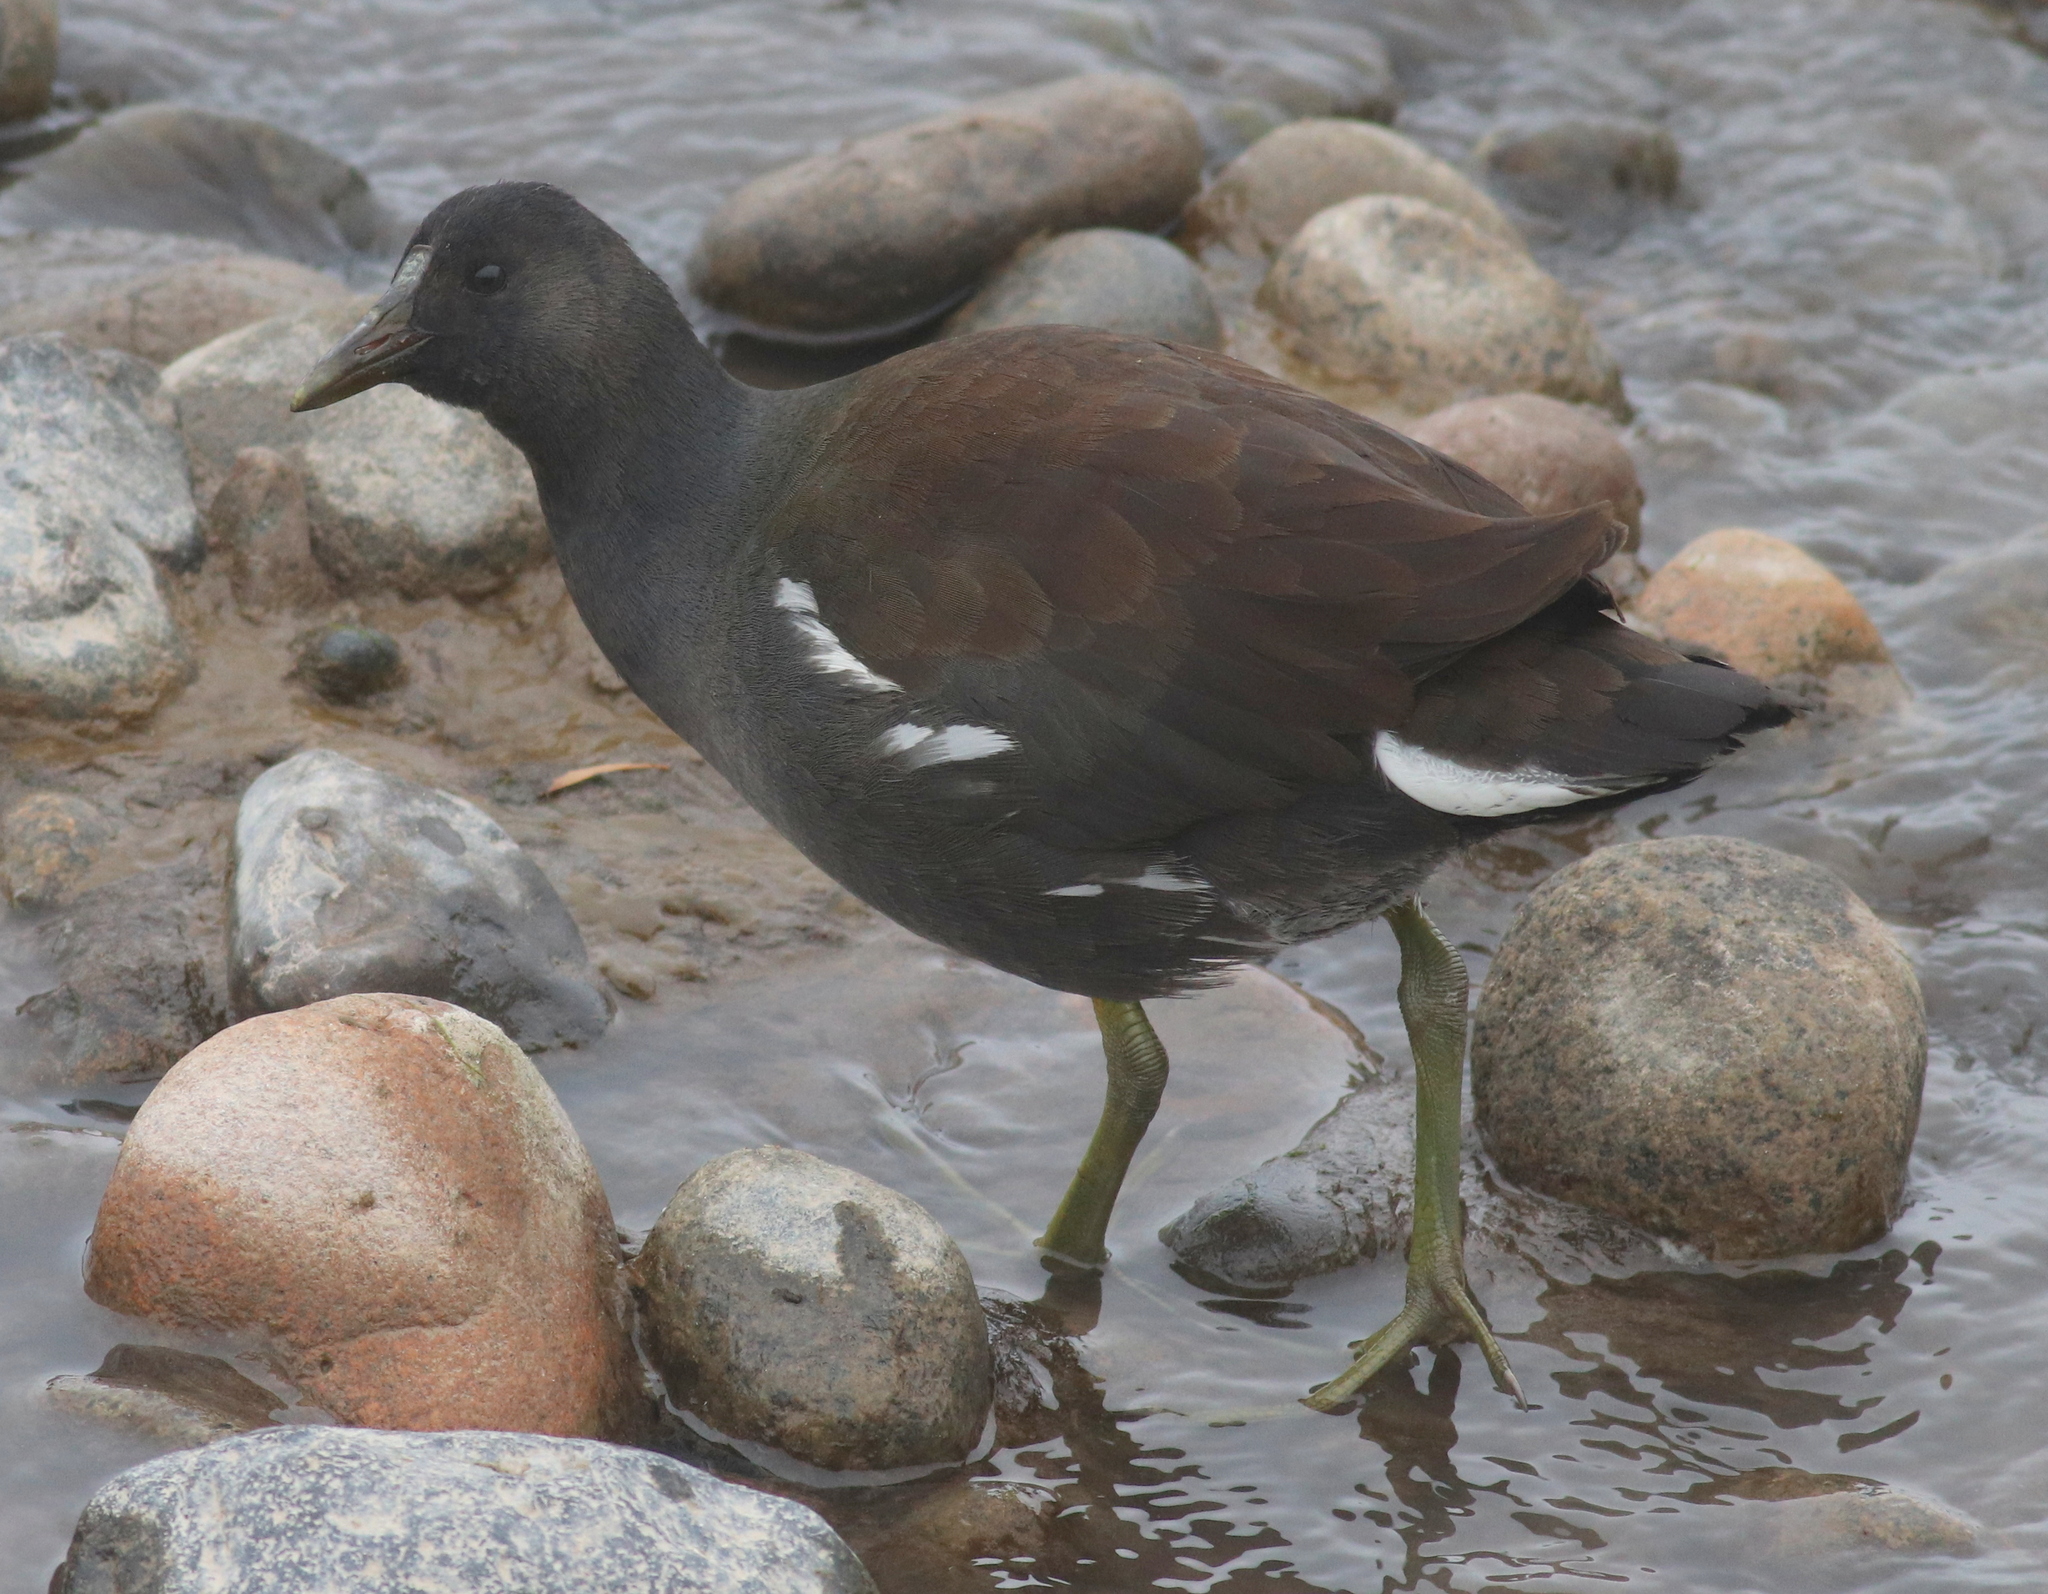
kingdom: Animalia
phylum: Chordata
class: Aves
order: Gruiformes
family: Rallidae
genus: Gallinula
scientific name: Gallinula chloropus
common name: Common moorhen
